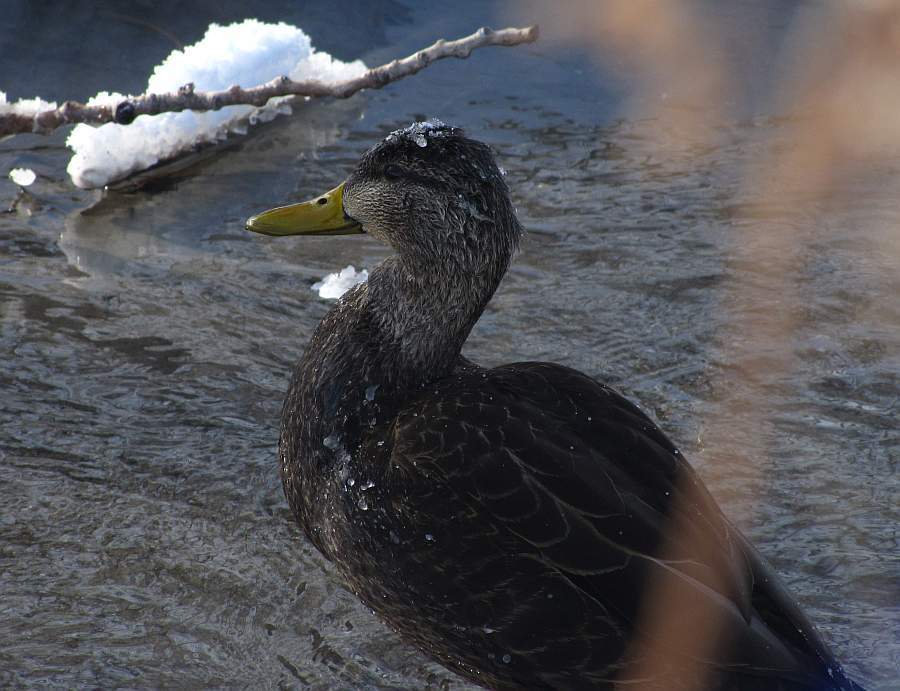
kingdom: Animalia
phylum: Chordata
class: Aves
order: Anseriformes
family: Anatidae
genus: Anas
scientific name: Anas rubripes
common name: American black duck
